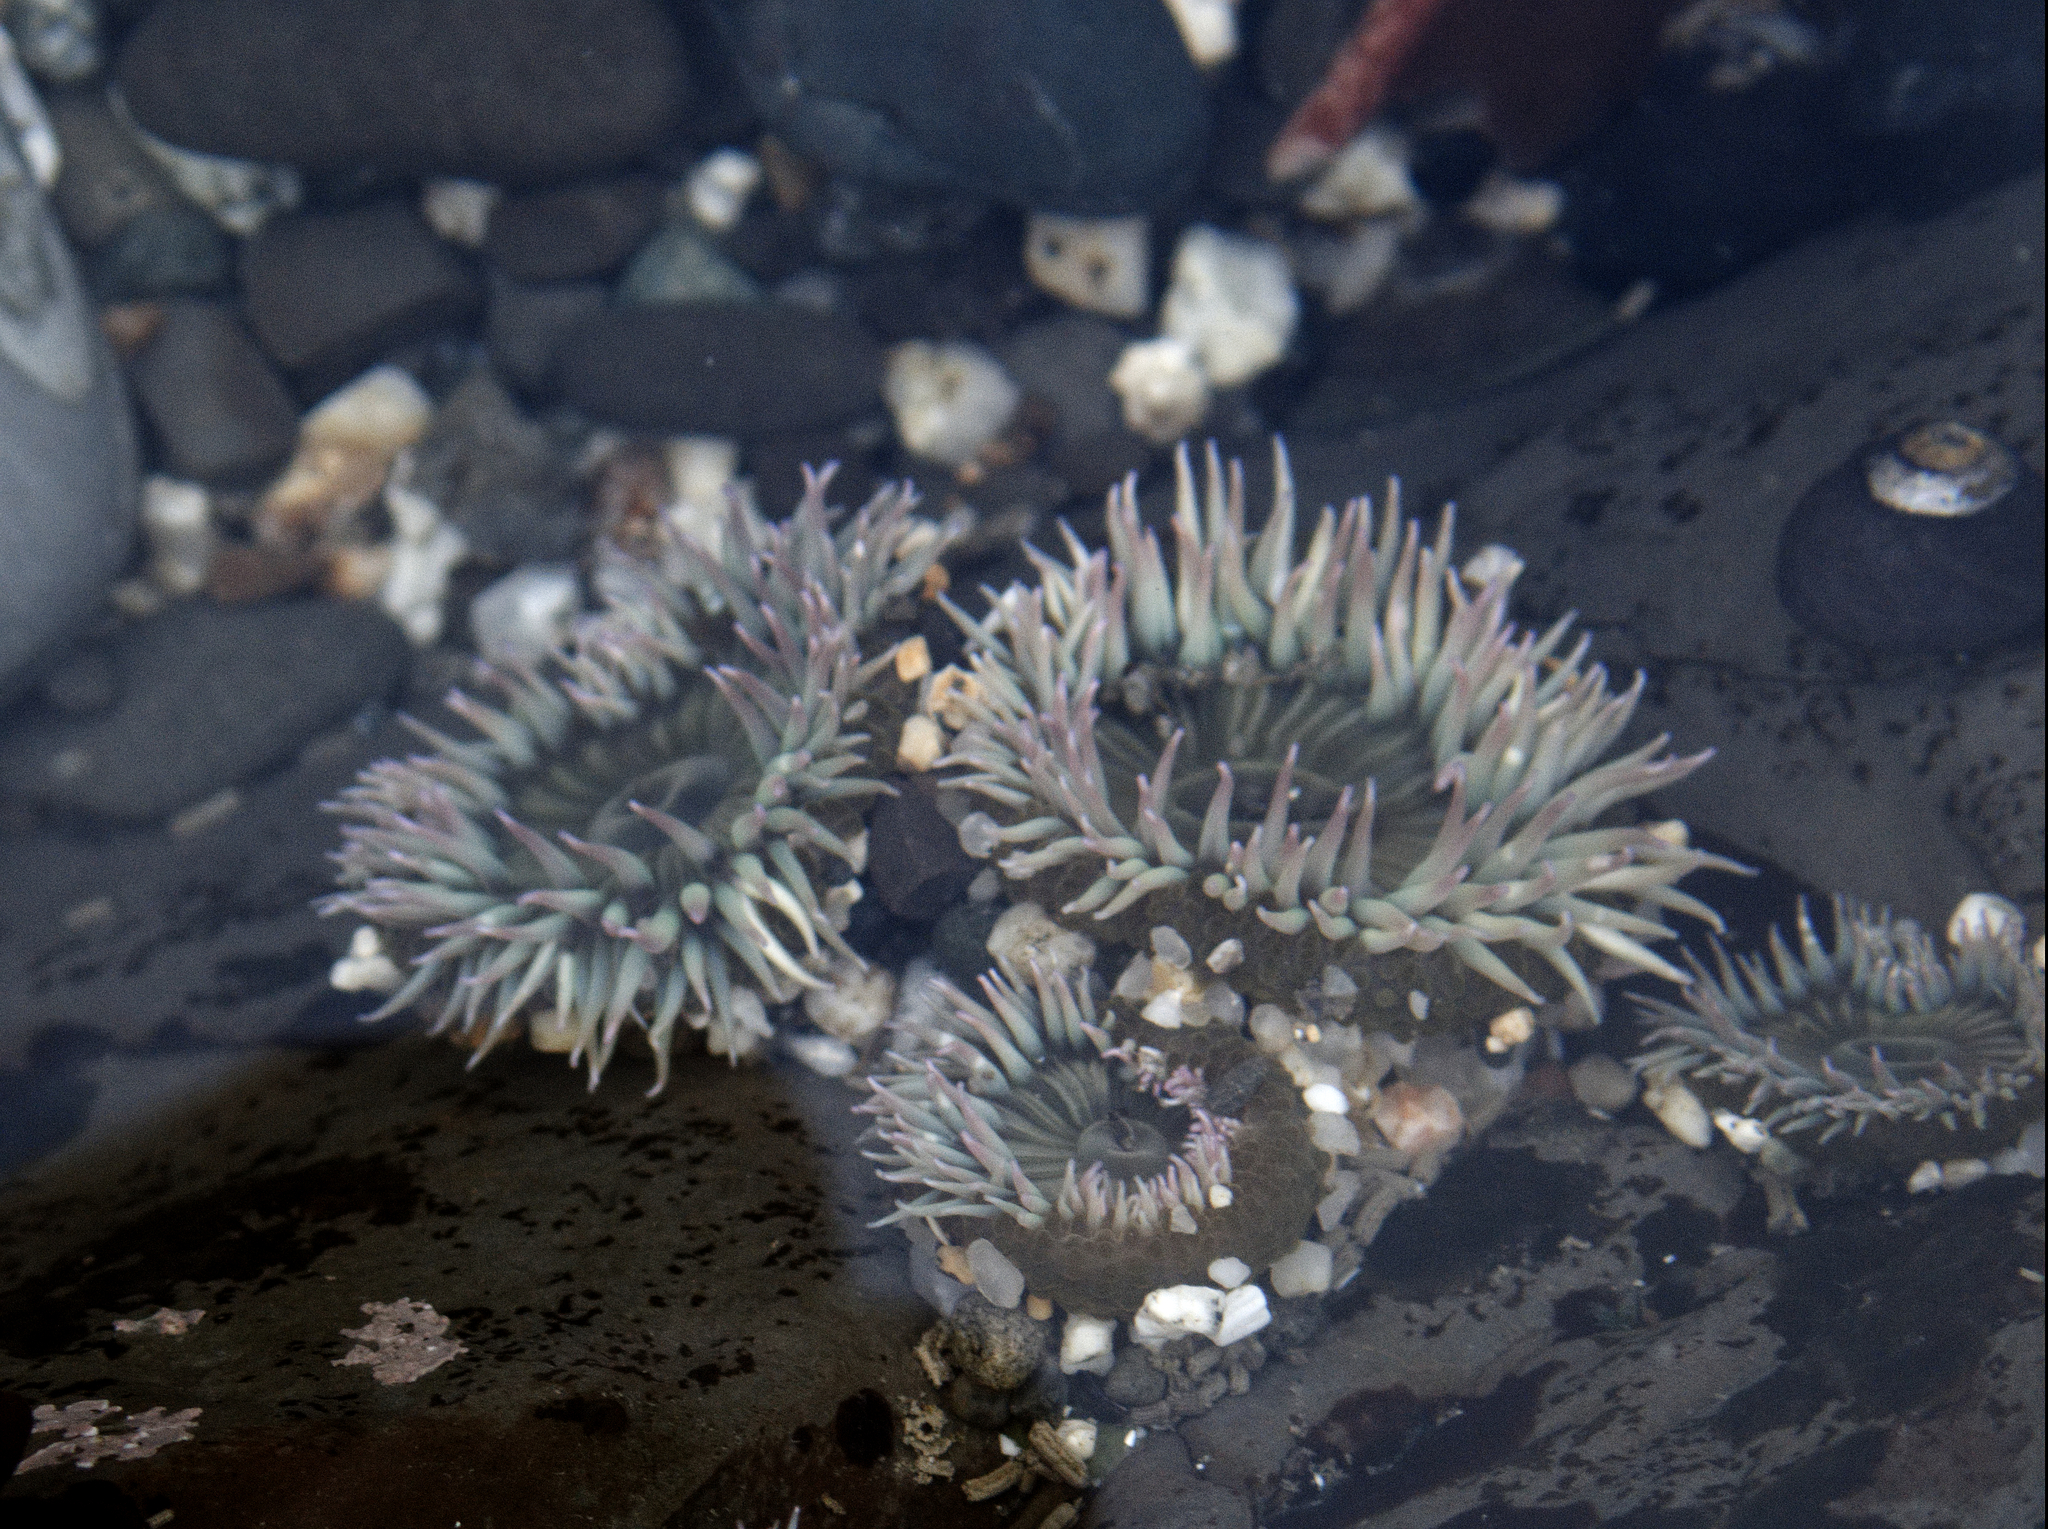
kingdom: Animalia
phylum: Cnidaria
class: Anthozoa
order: Actiniaria
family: Actiniidae
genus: Anthopleura
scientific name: Anthopleura elegantissima
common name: Clonal anemone
